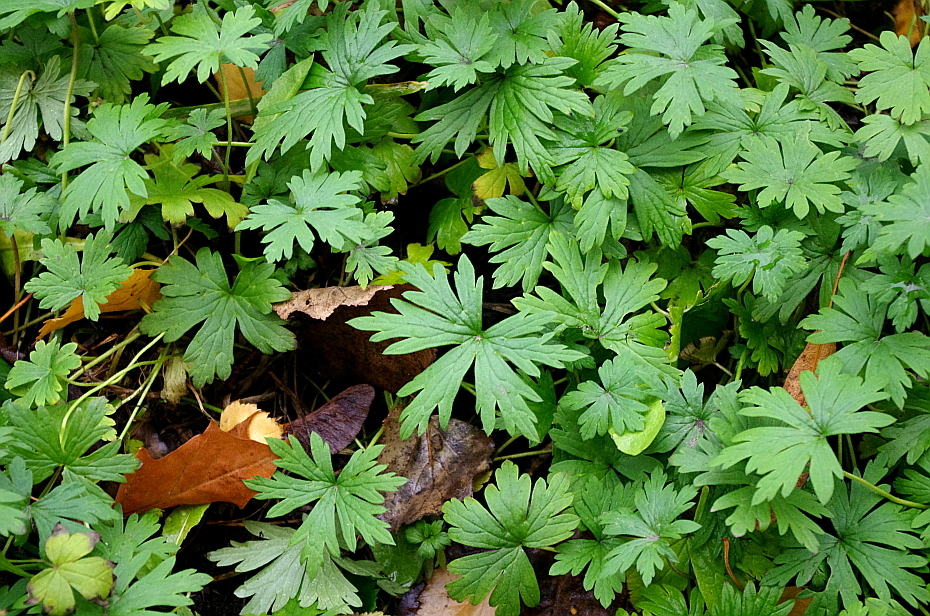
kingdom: Plantae
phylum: Tracheophyta
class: Magnoliopsida
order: Geraniales
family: Geraniaceae
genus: Geranium
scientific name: Geranium sibiricum
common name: Siberian crane's-bill
